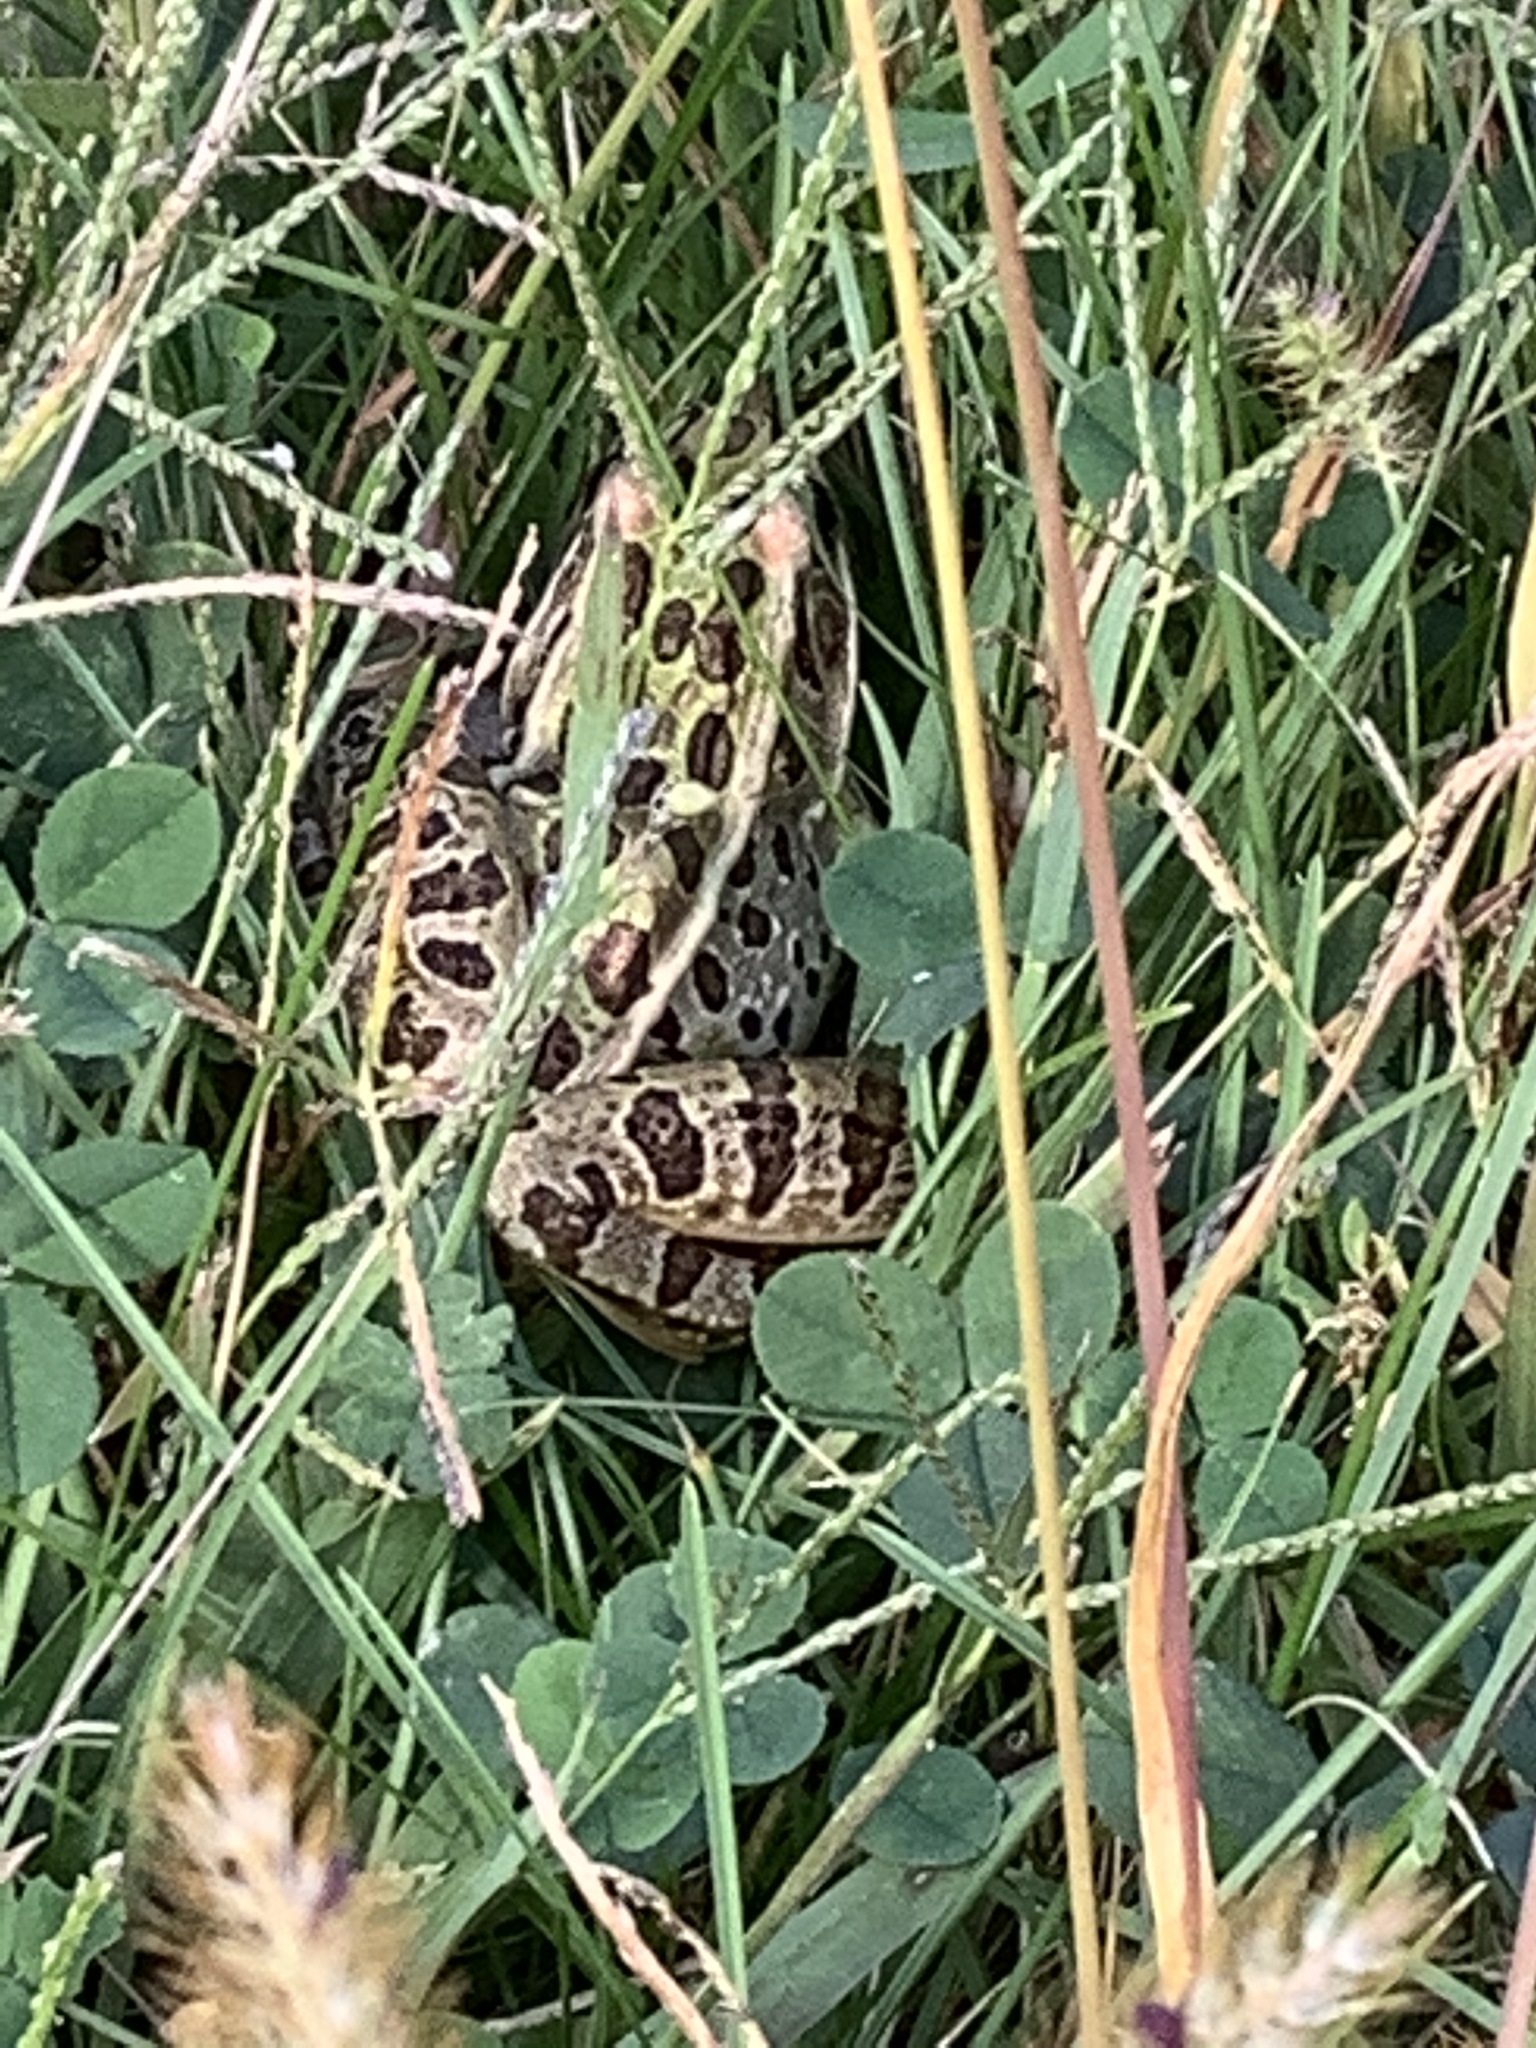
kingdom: Animalia
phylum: Chordata
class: Amphibia
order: Anura
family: Ranidae
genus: Lithobates
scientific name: Lithobates pipiens
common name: Northern leopard frog
